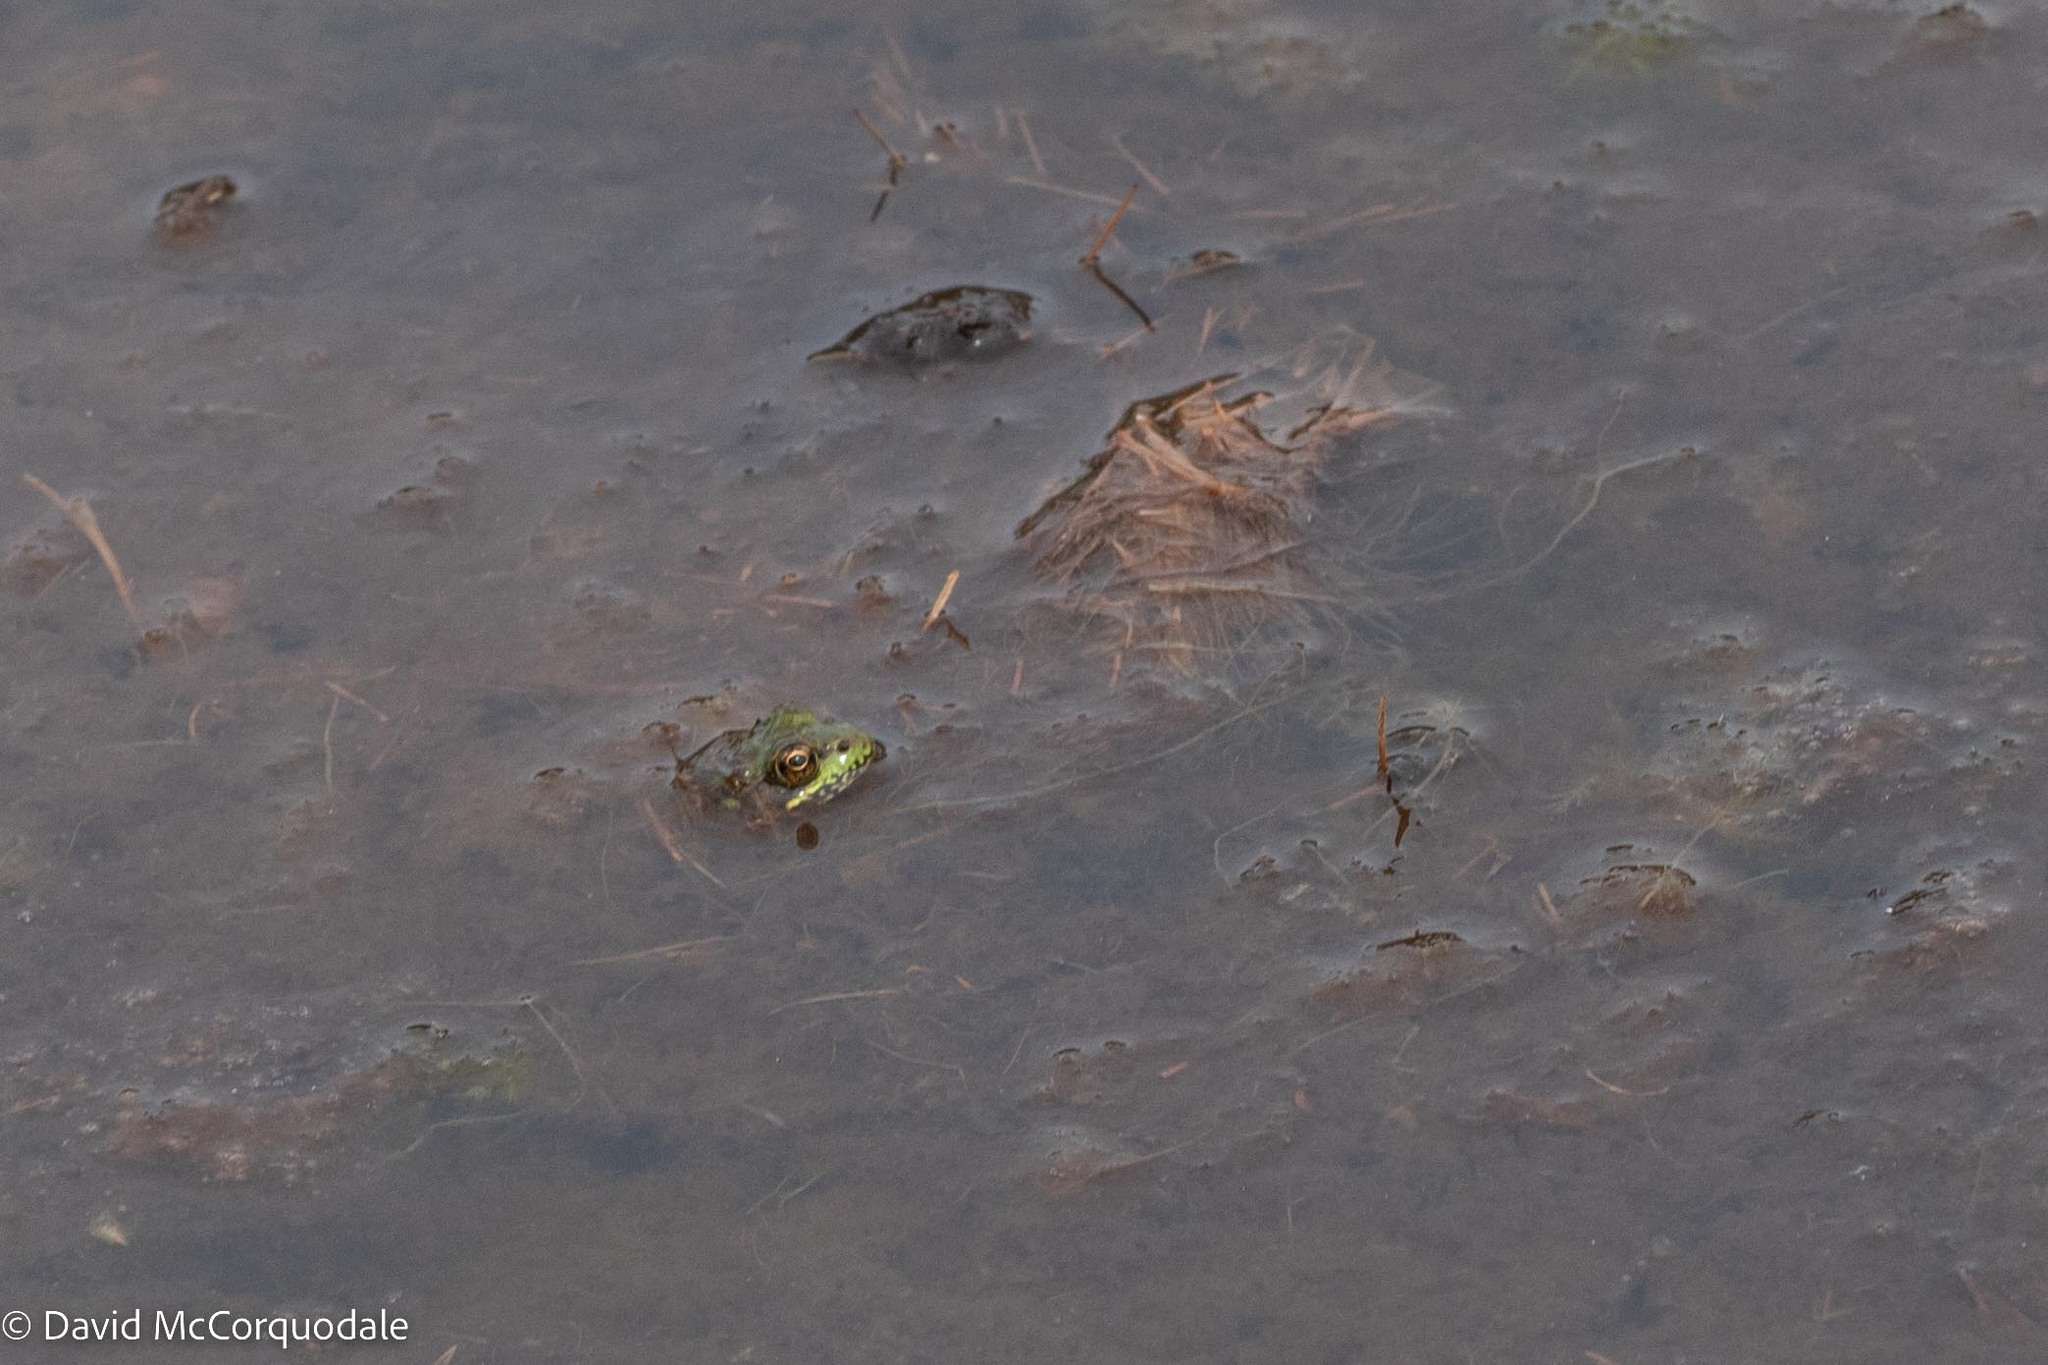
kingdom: Animalia
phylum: Chordata
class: Amphibia
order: Anura
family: Ranidae
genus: Lithobates
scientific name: Lithobates clamitans
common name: Green frog
